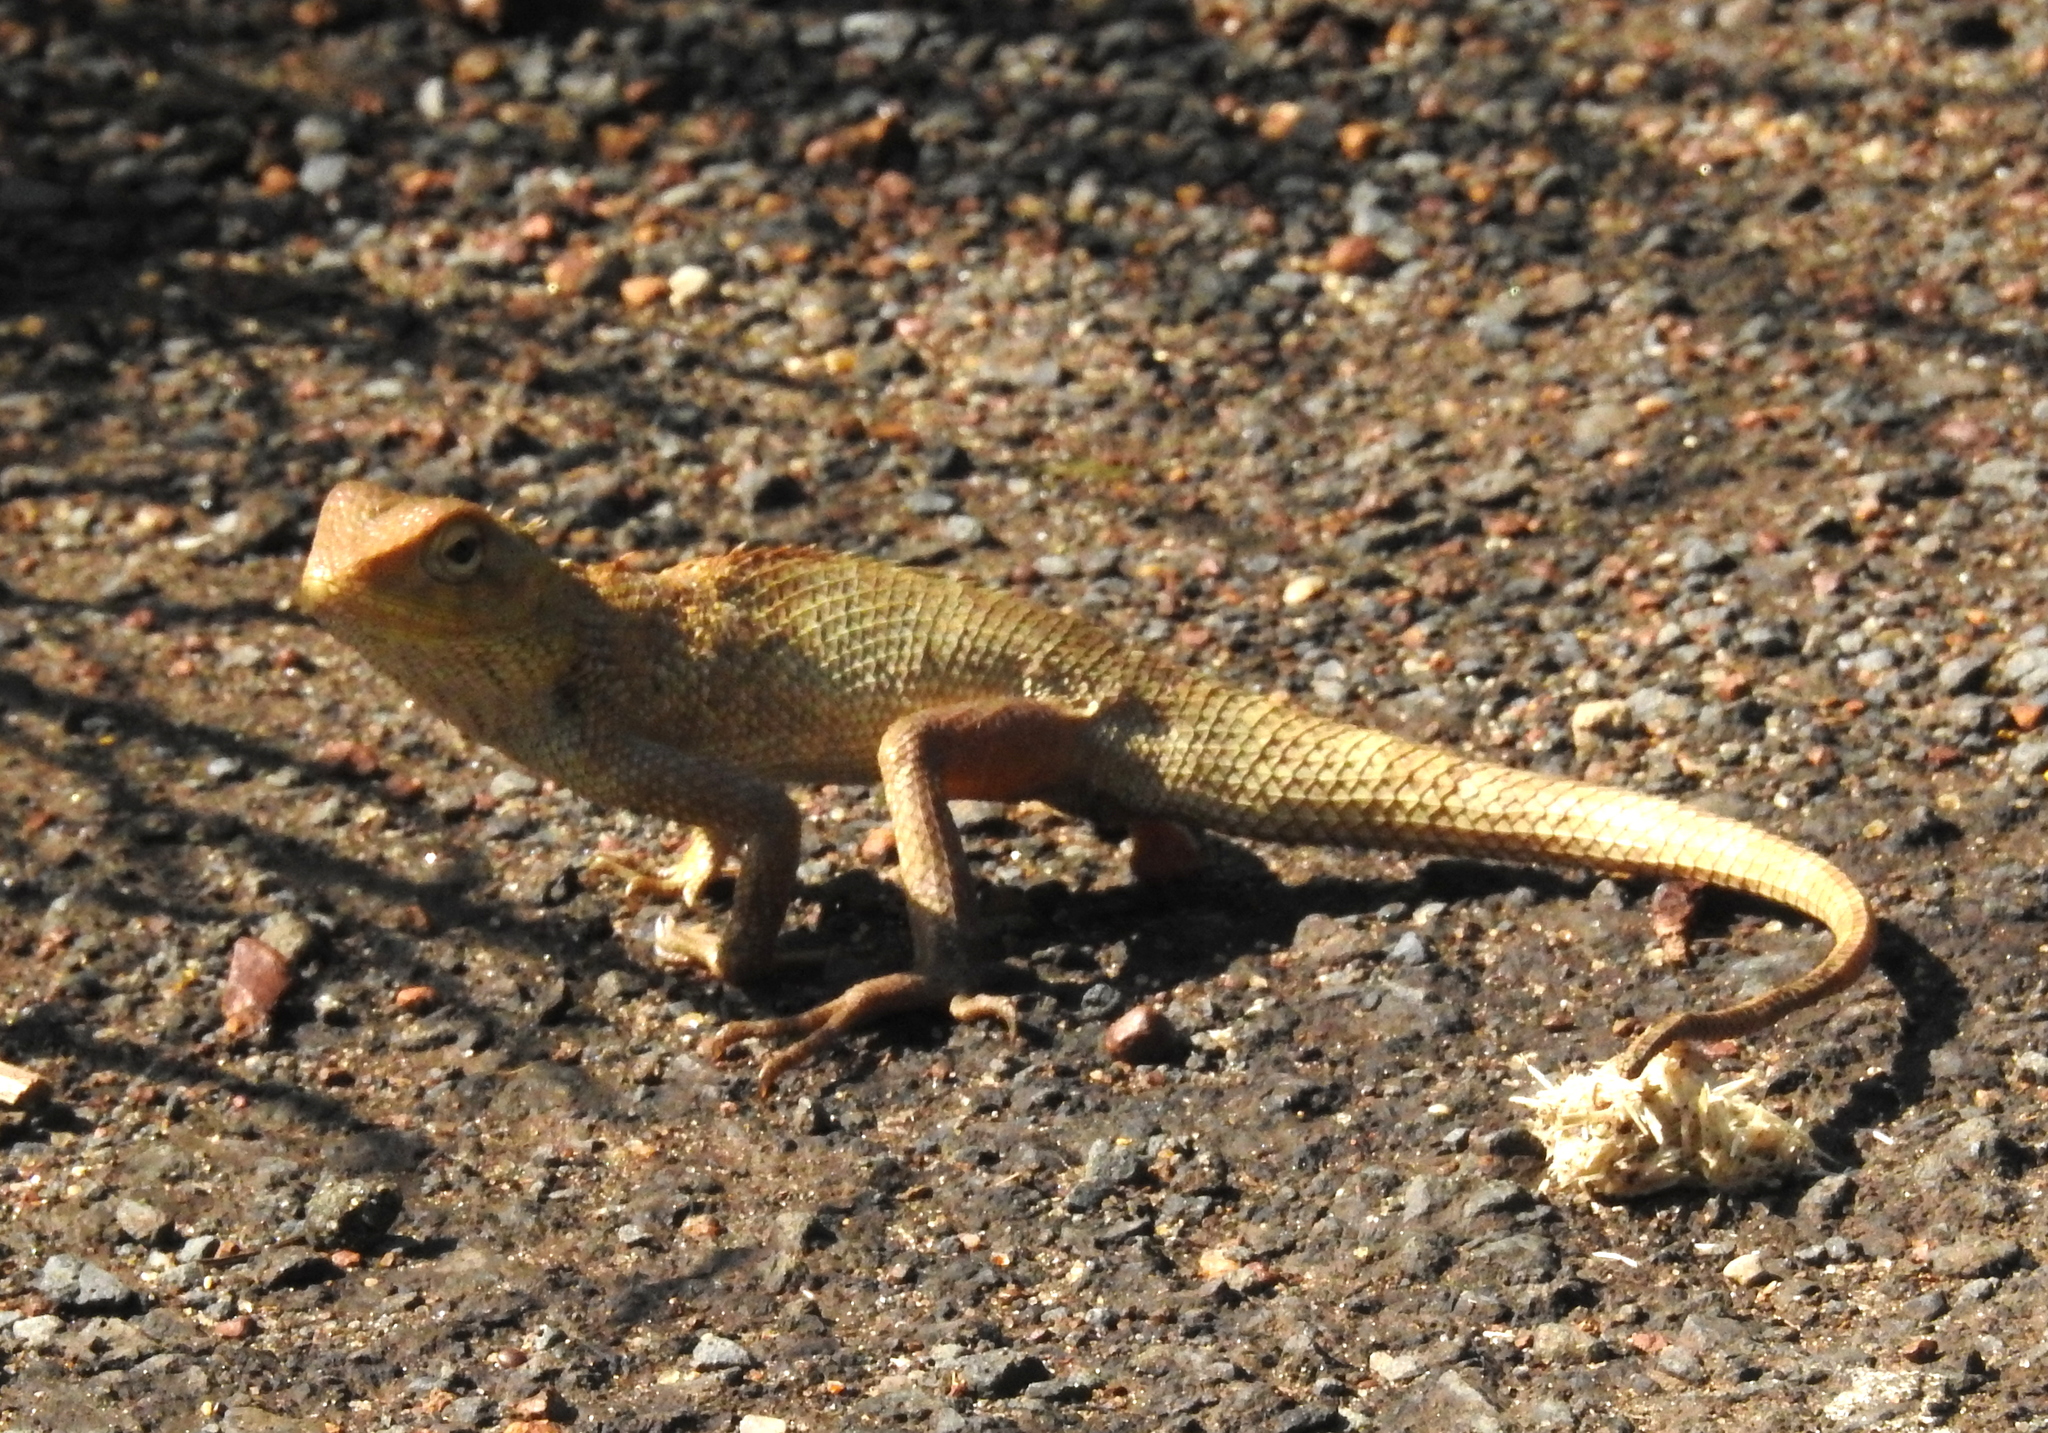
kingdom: Animalia
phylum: Chordata
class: Squamata
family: Agamidae
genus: Calotes
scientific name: Calotes versicolor
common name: Oriental garden lizard
